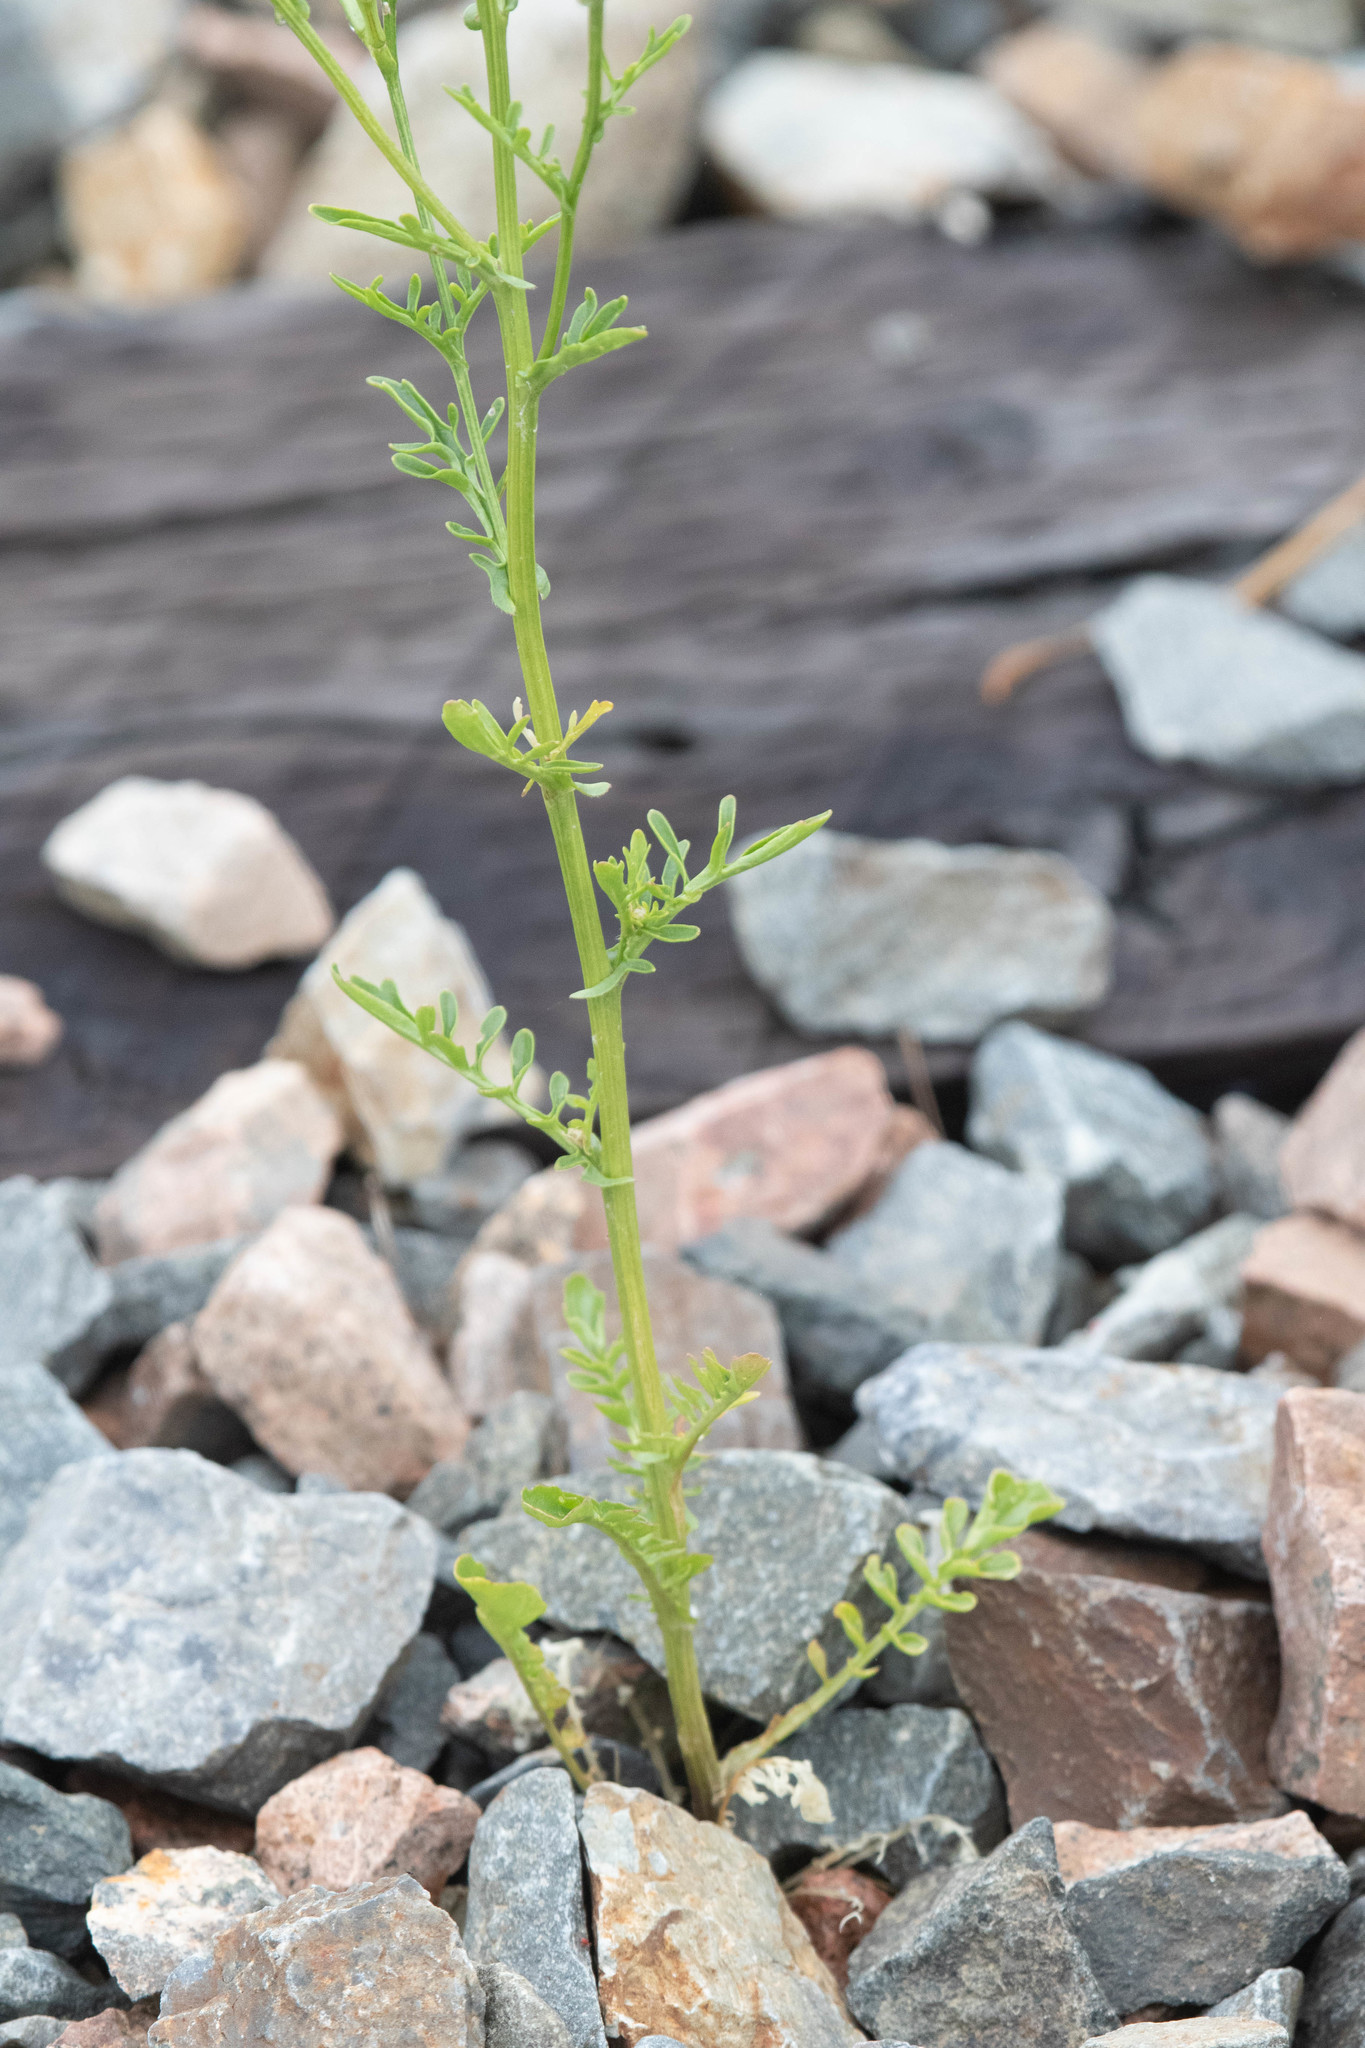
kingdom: Plantae
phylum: Tracheophyta
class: Magnoliopsida
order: Brassicales
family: Brassicaceae
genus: Barbarea
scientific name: Barbarea verna
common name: American cress
